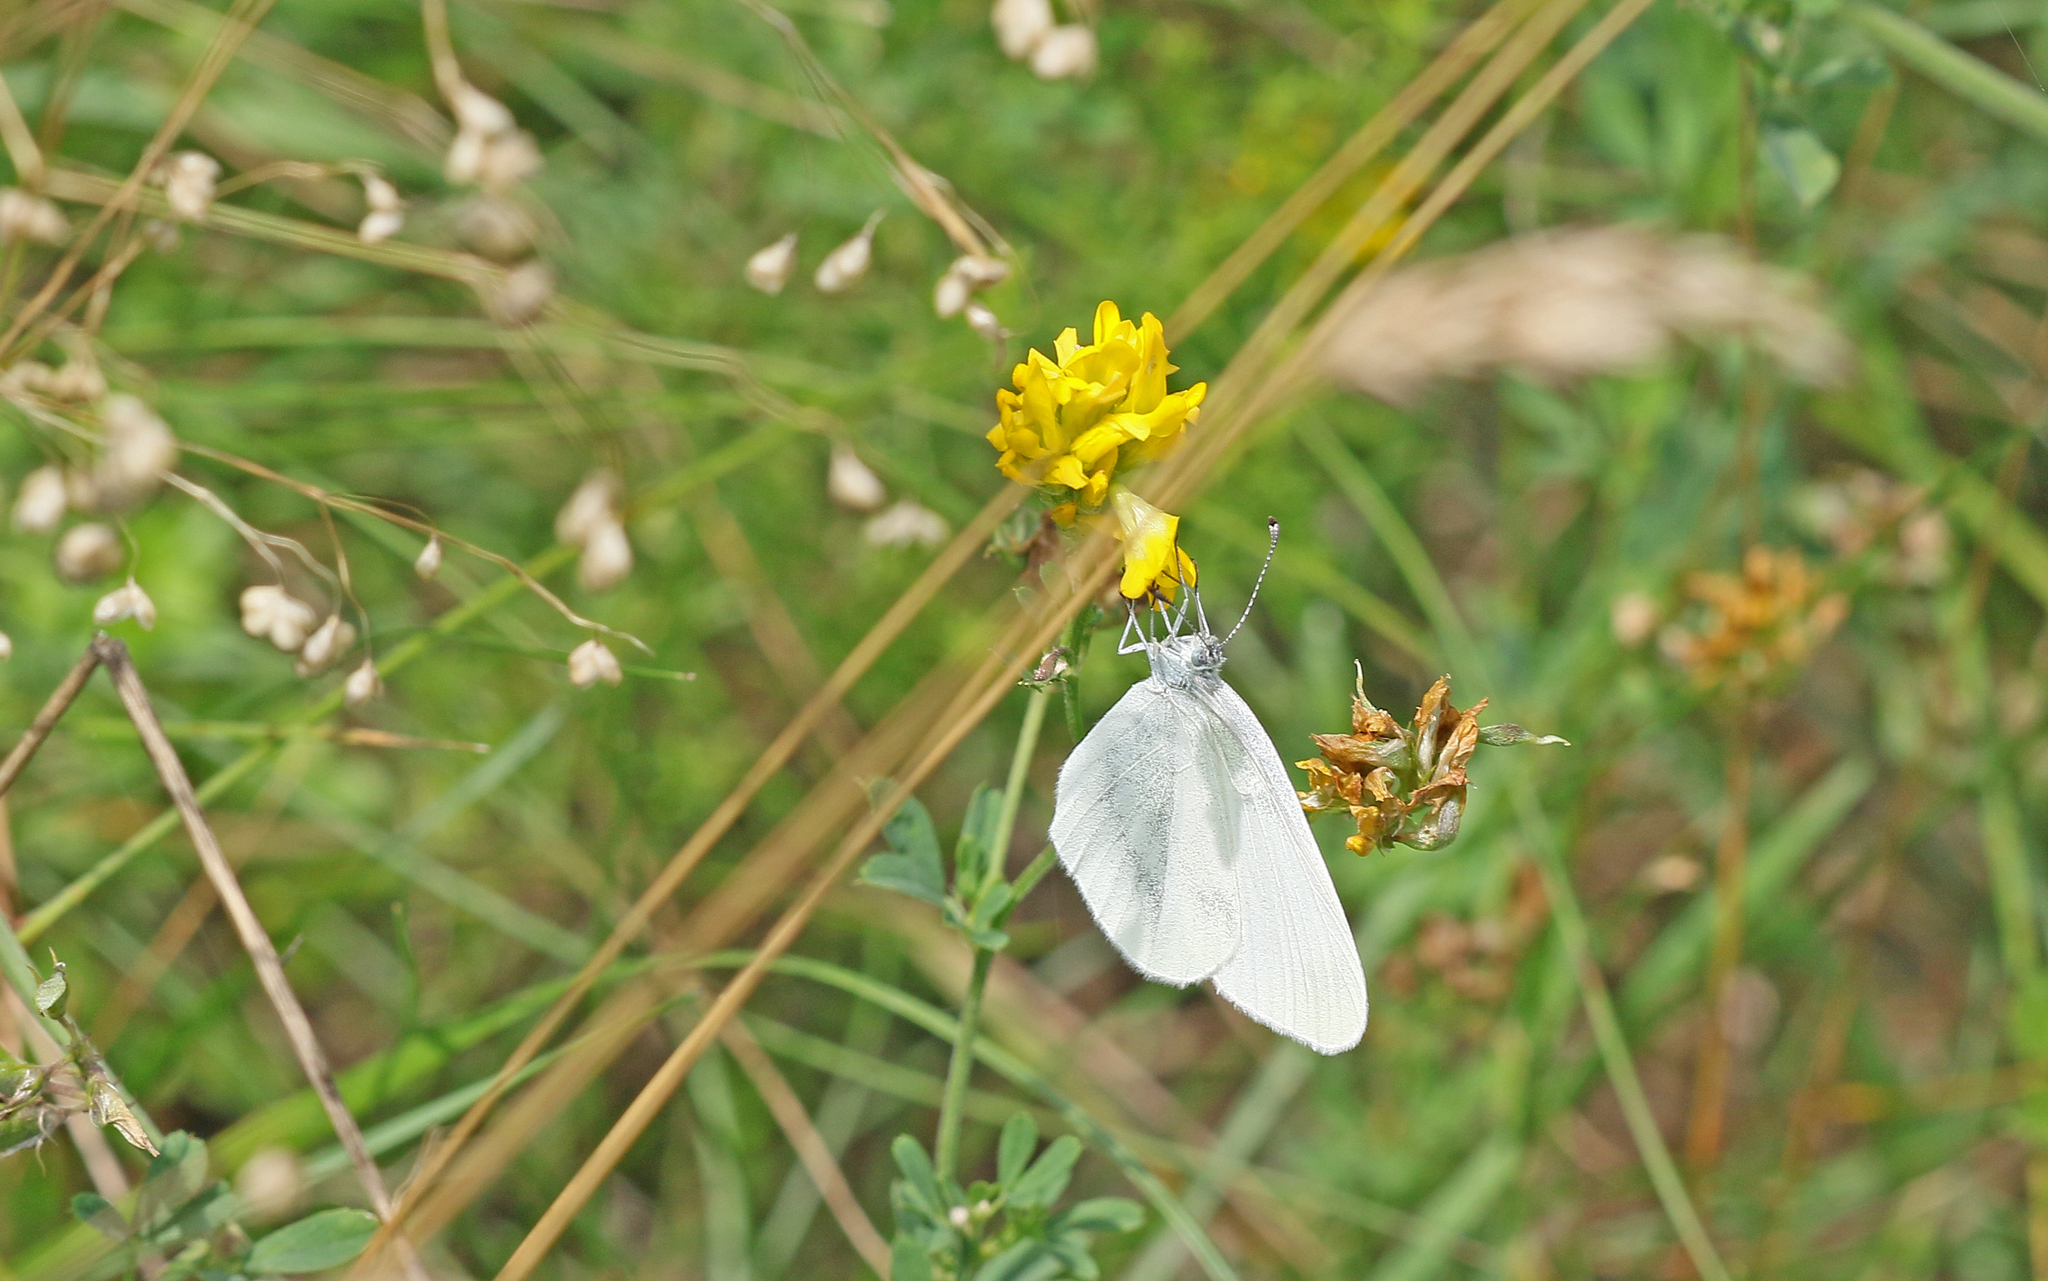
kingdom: Animalia
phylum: Arthropoda
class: Insecta
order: Lepidoptera
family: Pieridae
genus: Leptidea
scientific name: Leptidea
